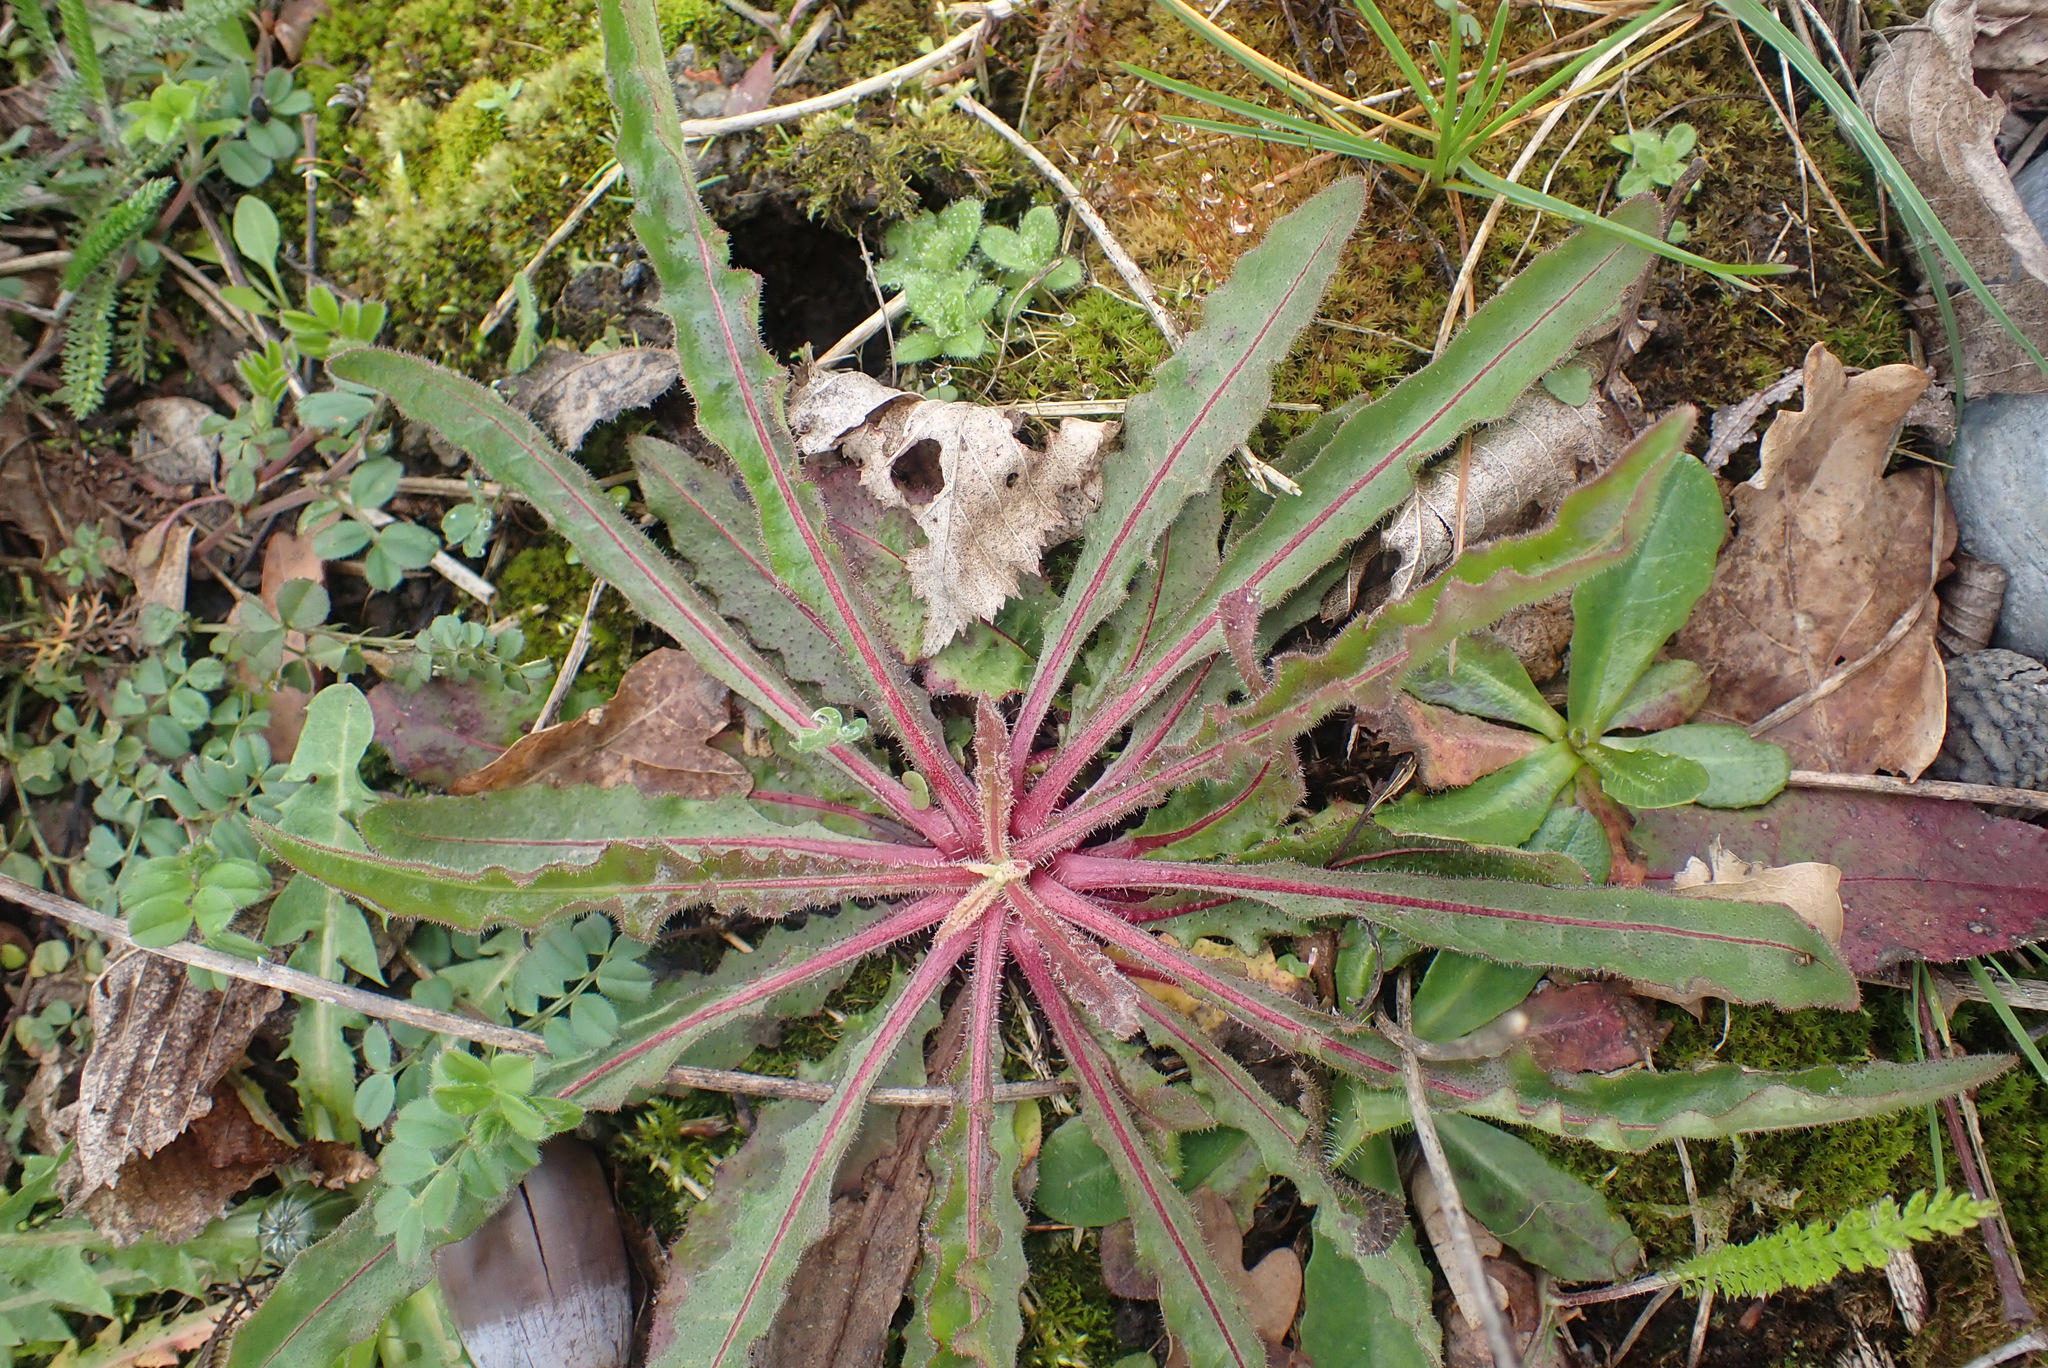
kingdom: Plantae
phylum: Tracheophyta
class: Magnoliopsida
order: Asterales
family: Asteraceae
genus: Picris
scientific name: Picris hieracioides
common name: Hawkweed oxtongue
